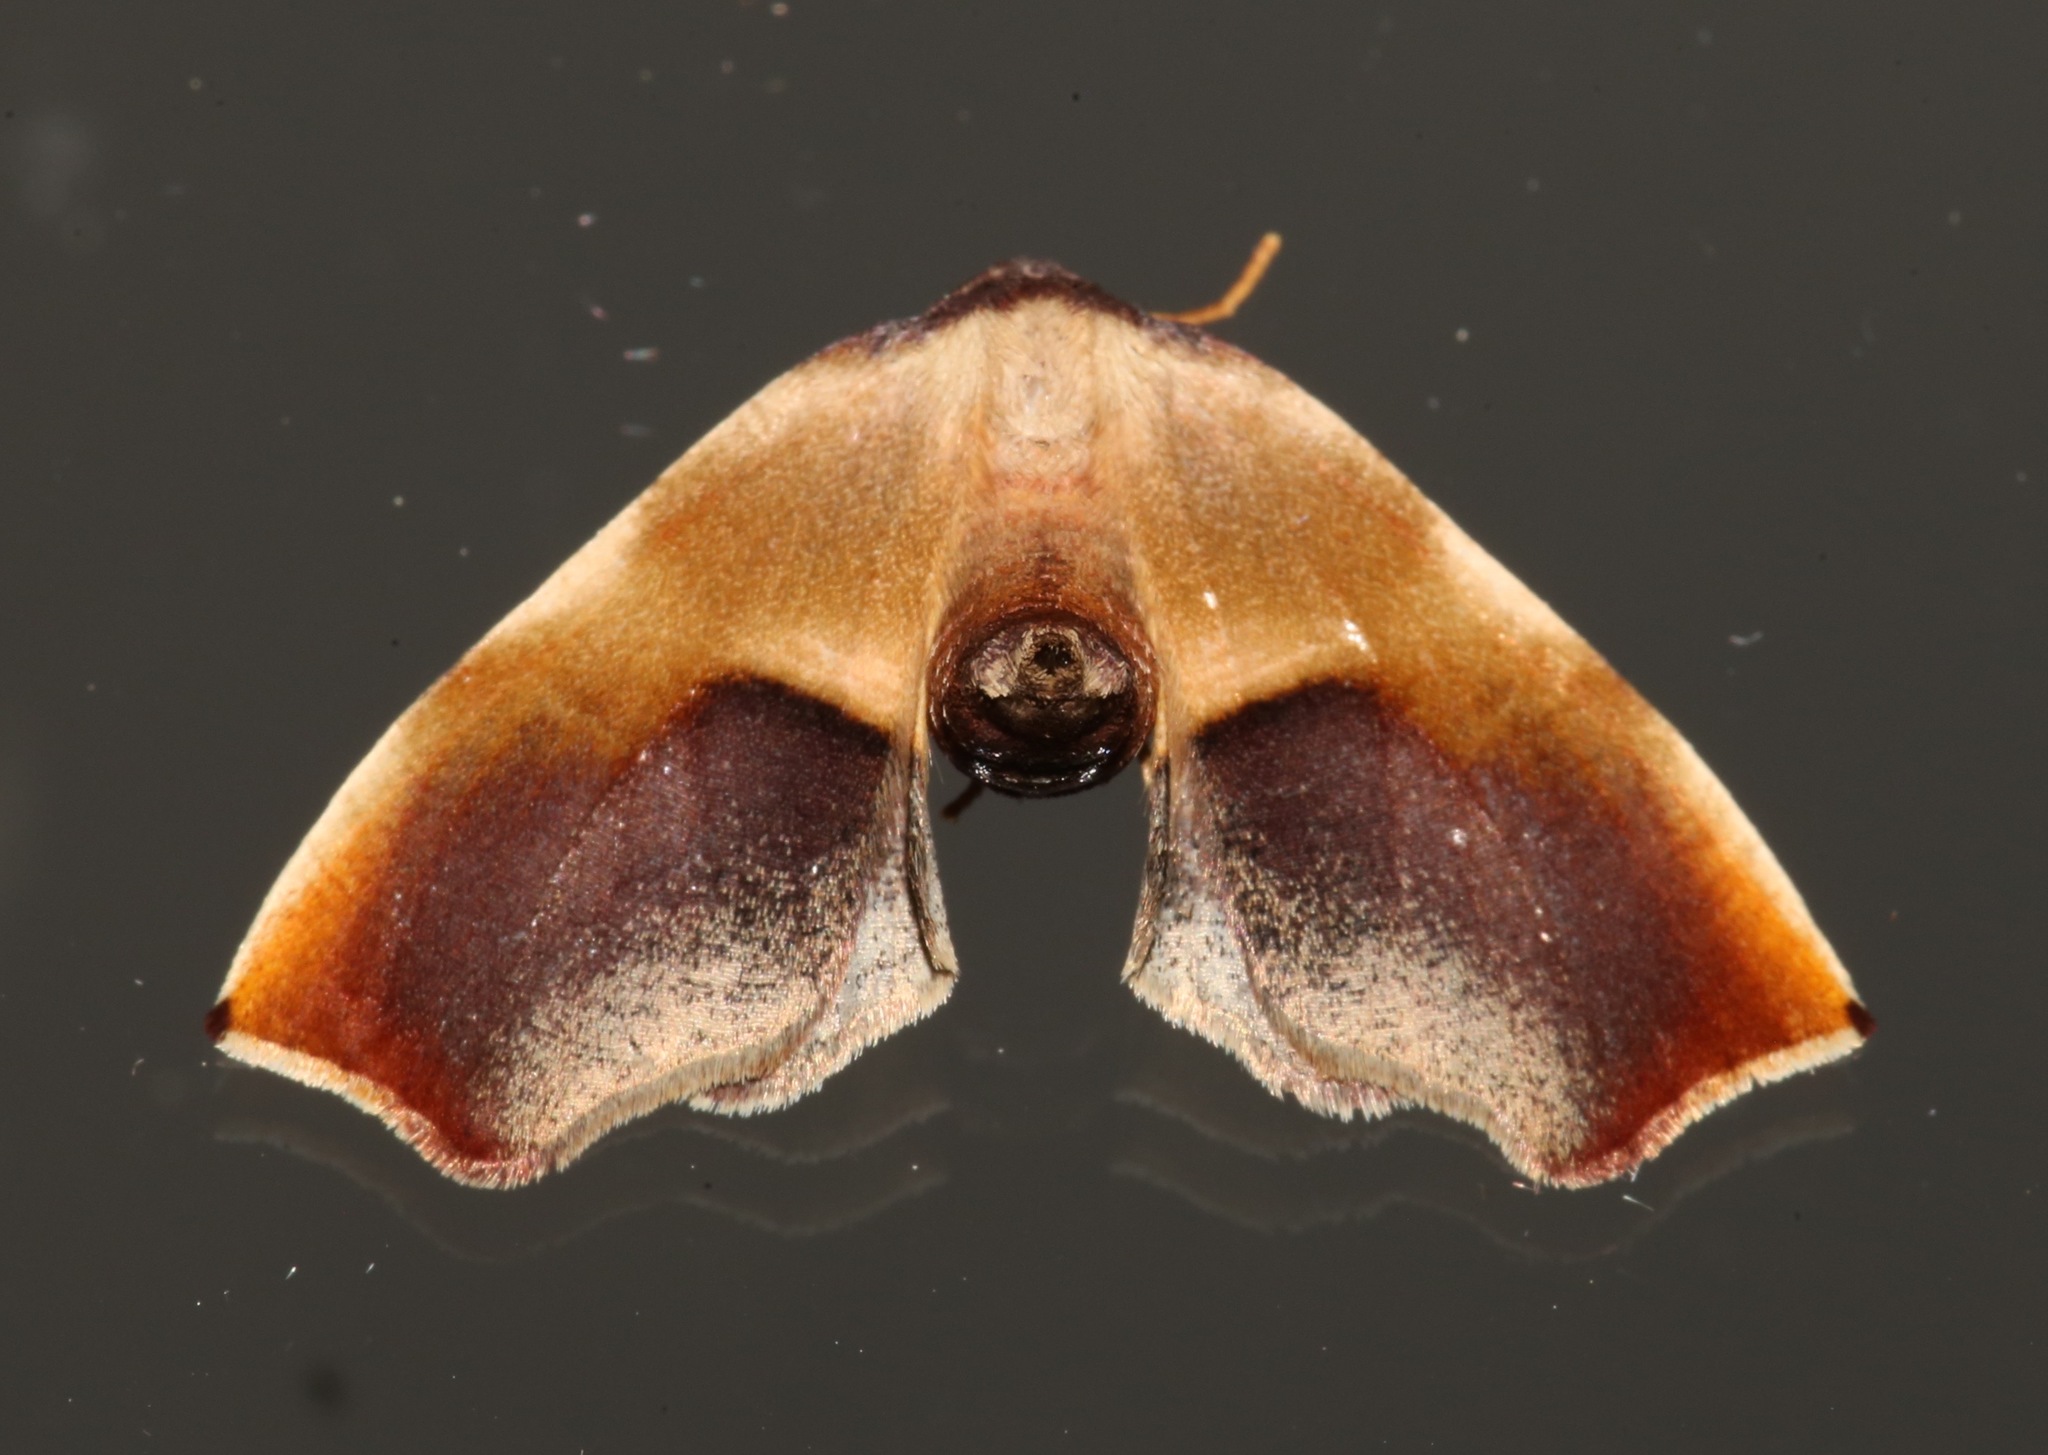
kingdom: Animalia
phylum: Arthropoda
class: Insecta
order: Lepidoptera
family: Geometridae
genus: Plagodis
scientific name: Plagodis kuetzingi
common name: Purple plagodis
